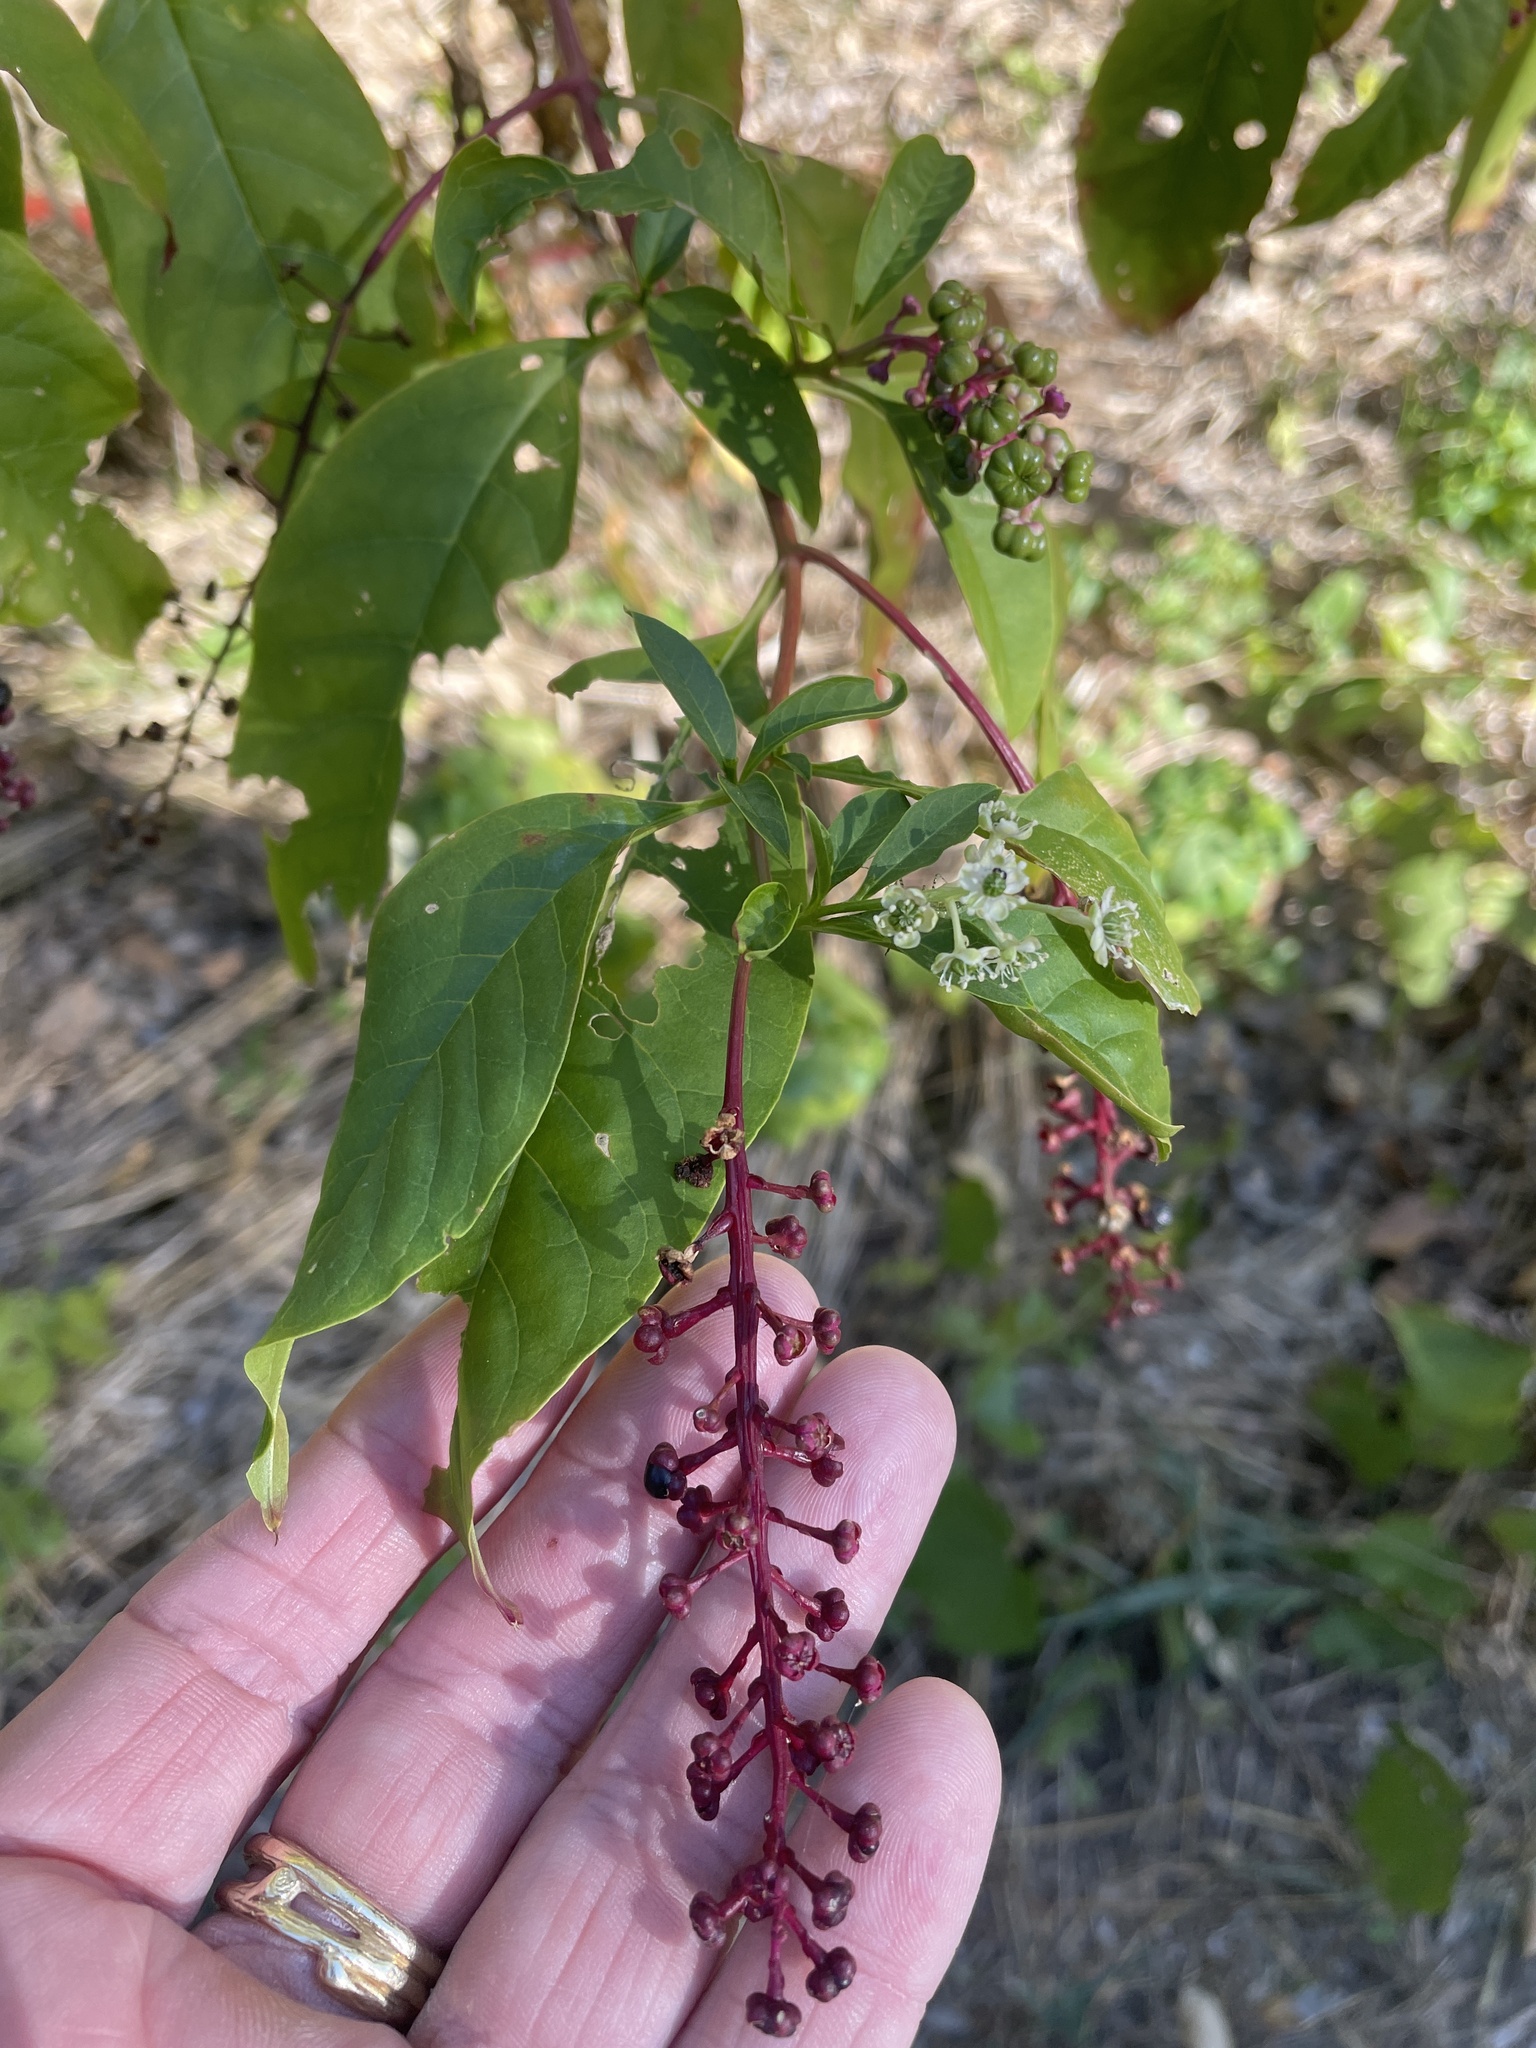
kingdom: Plantae
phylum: Tracheophyta
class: Magnoliopsida
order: Caryophyllales
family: Phytolaccaceae
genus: Phytolacca
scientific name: Phytolacca americana
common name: American pokeweed
